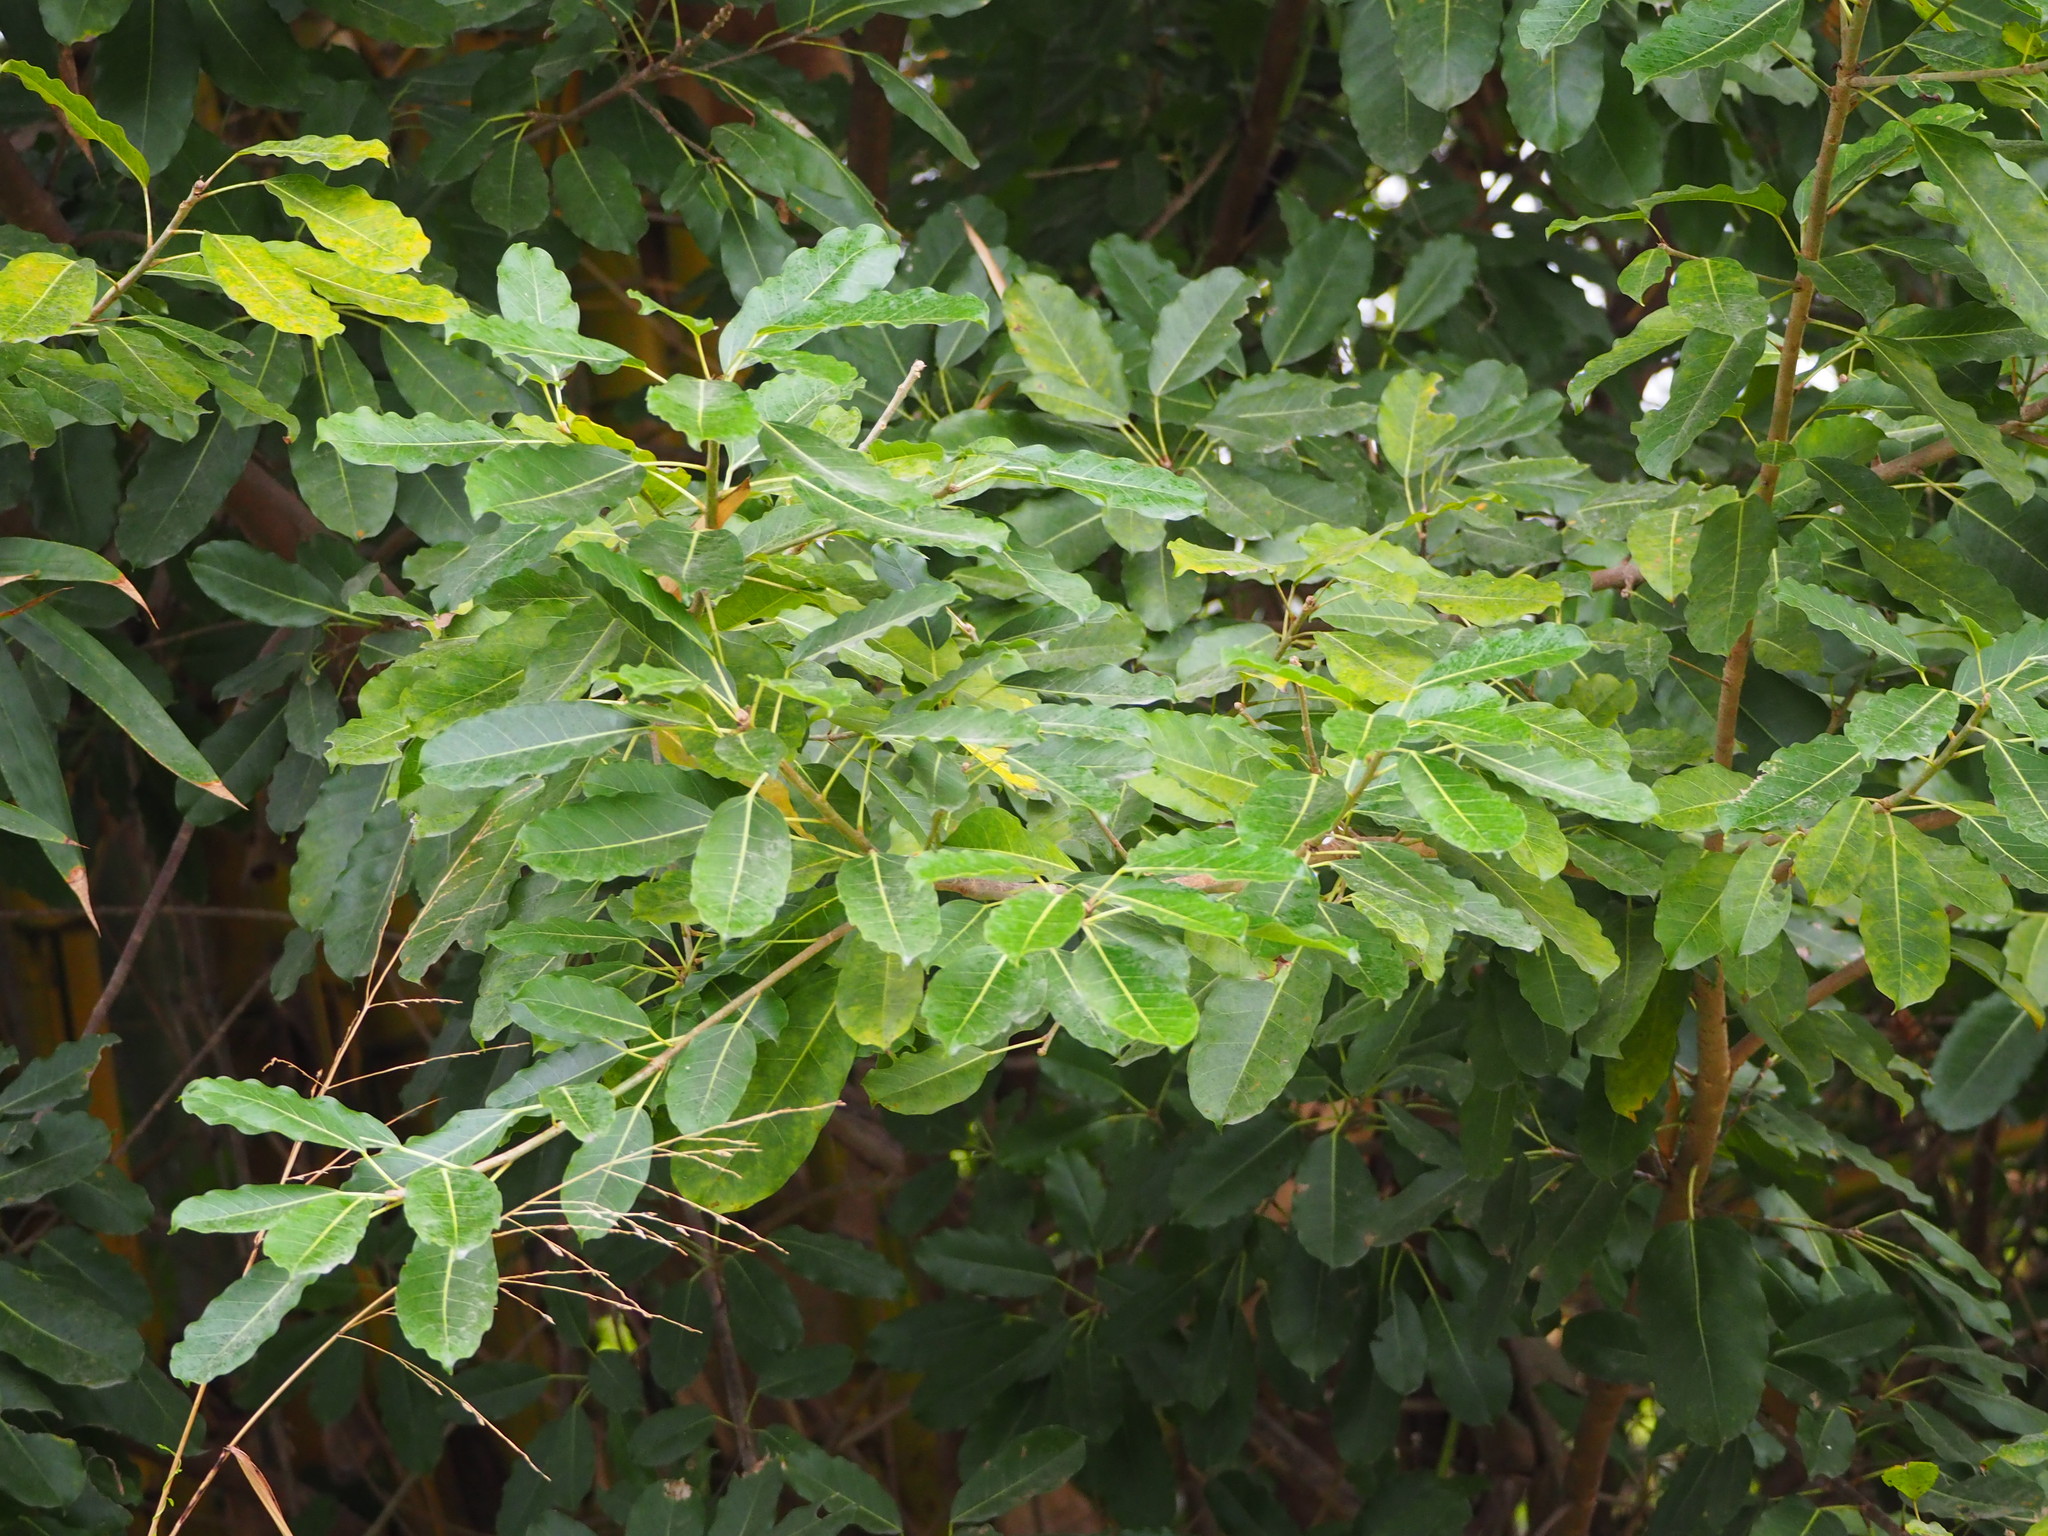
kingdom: Plantae
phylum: Tracheophyta
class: Magnoliopsida
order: Rosales
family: Moraceae
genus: Ficus
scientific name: Ficus subpisocarpa
